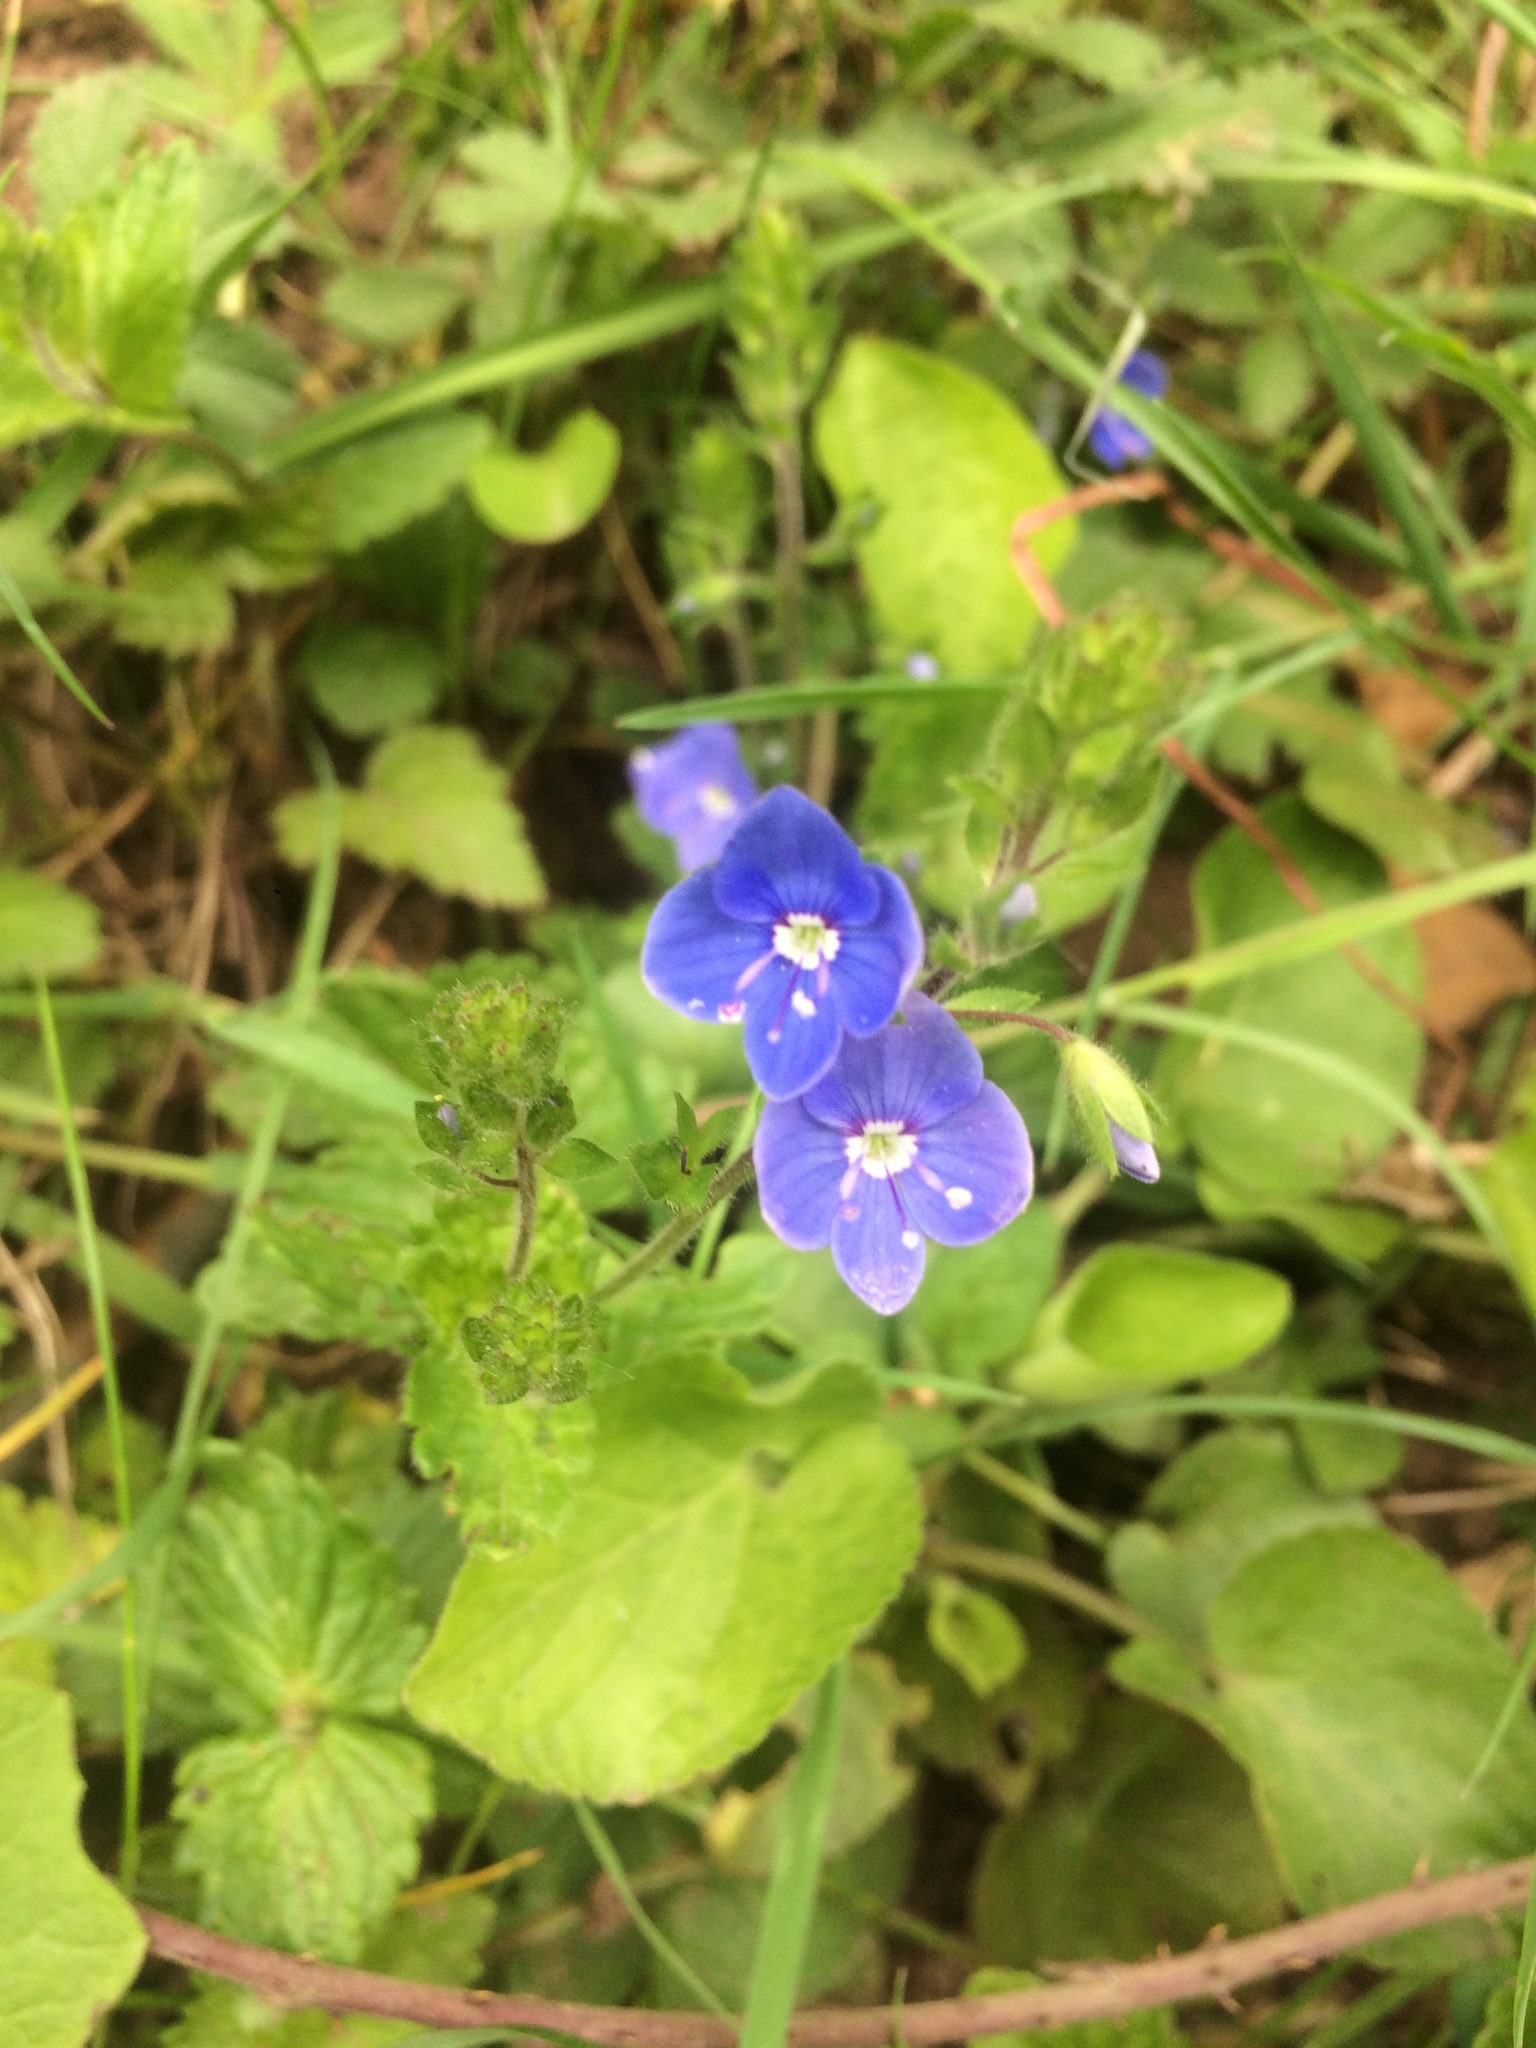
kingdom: Plantae
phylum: Tracheophyta
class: Magnoliopsida
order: Lamiales
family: Plantaginaceae
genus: Veronica
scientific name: Veronica chamaedrys
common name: Germander speedwell
